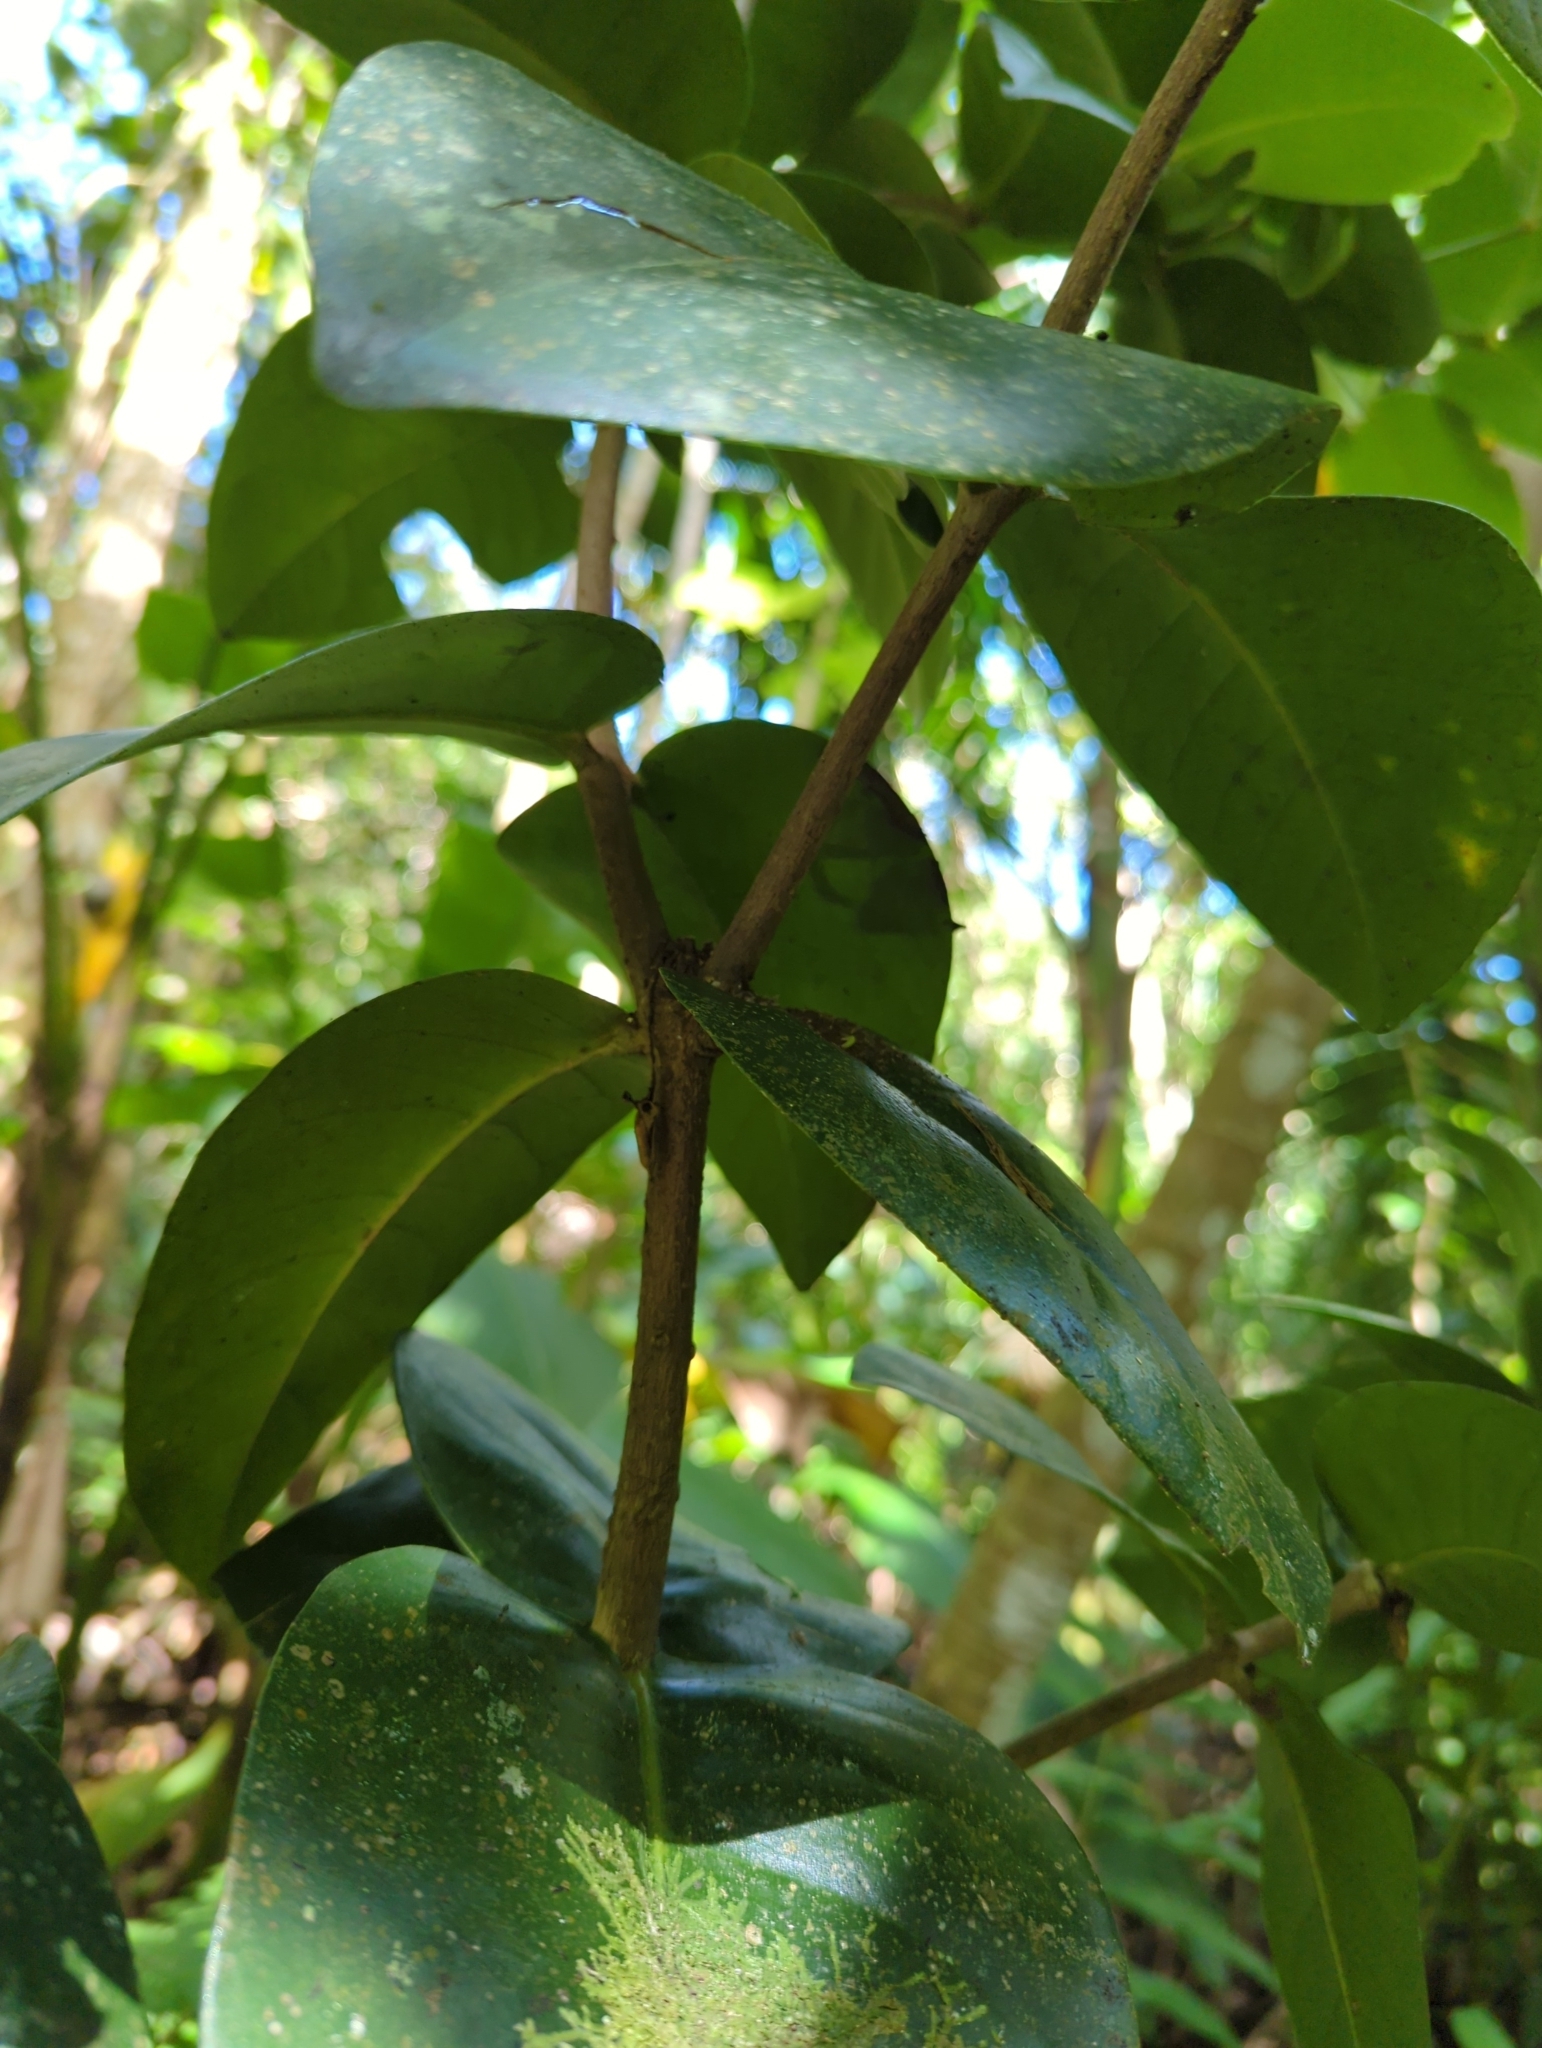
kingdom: Plantae
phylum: Tracheophyta
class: Magnoliopsida
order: Sapindales
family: Rutaceae
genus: Ravenia
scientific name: Ravenia urbani
